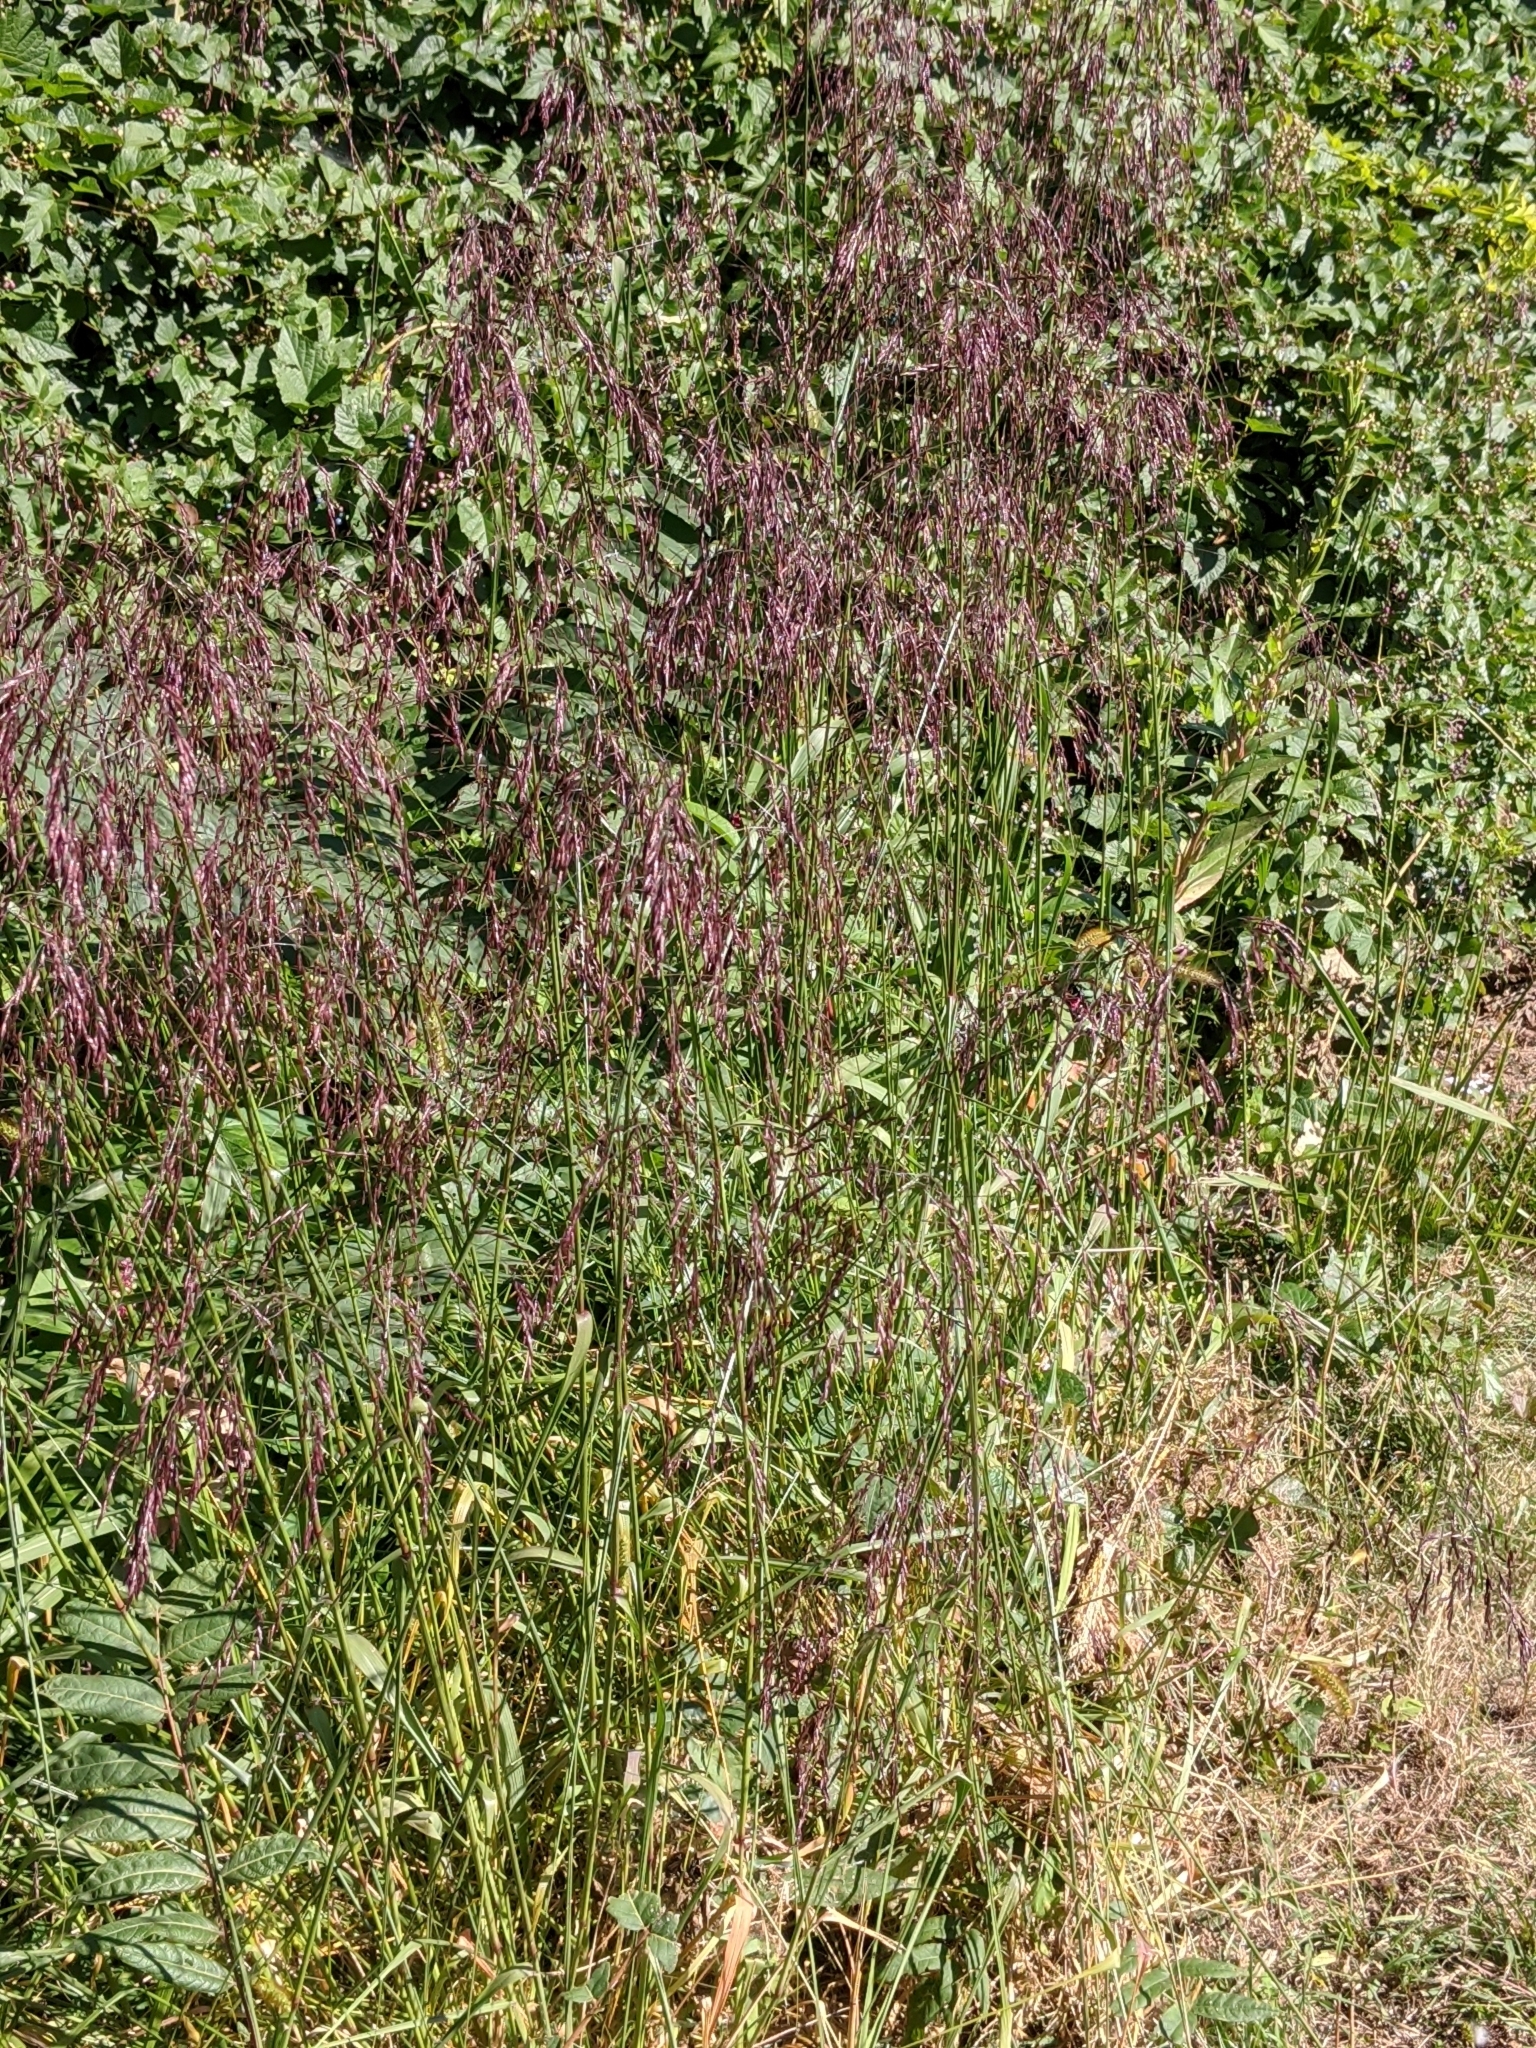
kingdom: Plantae
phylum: Tracheophyta
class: Liliopsida
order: Poales
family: Poaceae
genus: Tridens
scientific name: Tridens flavus
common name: Purpletop
